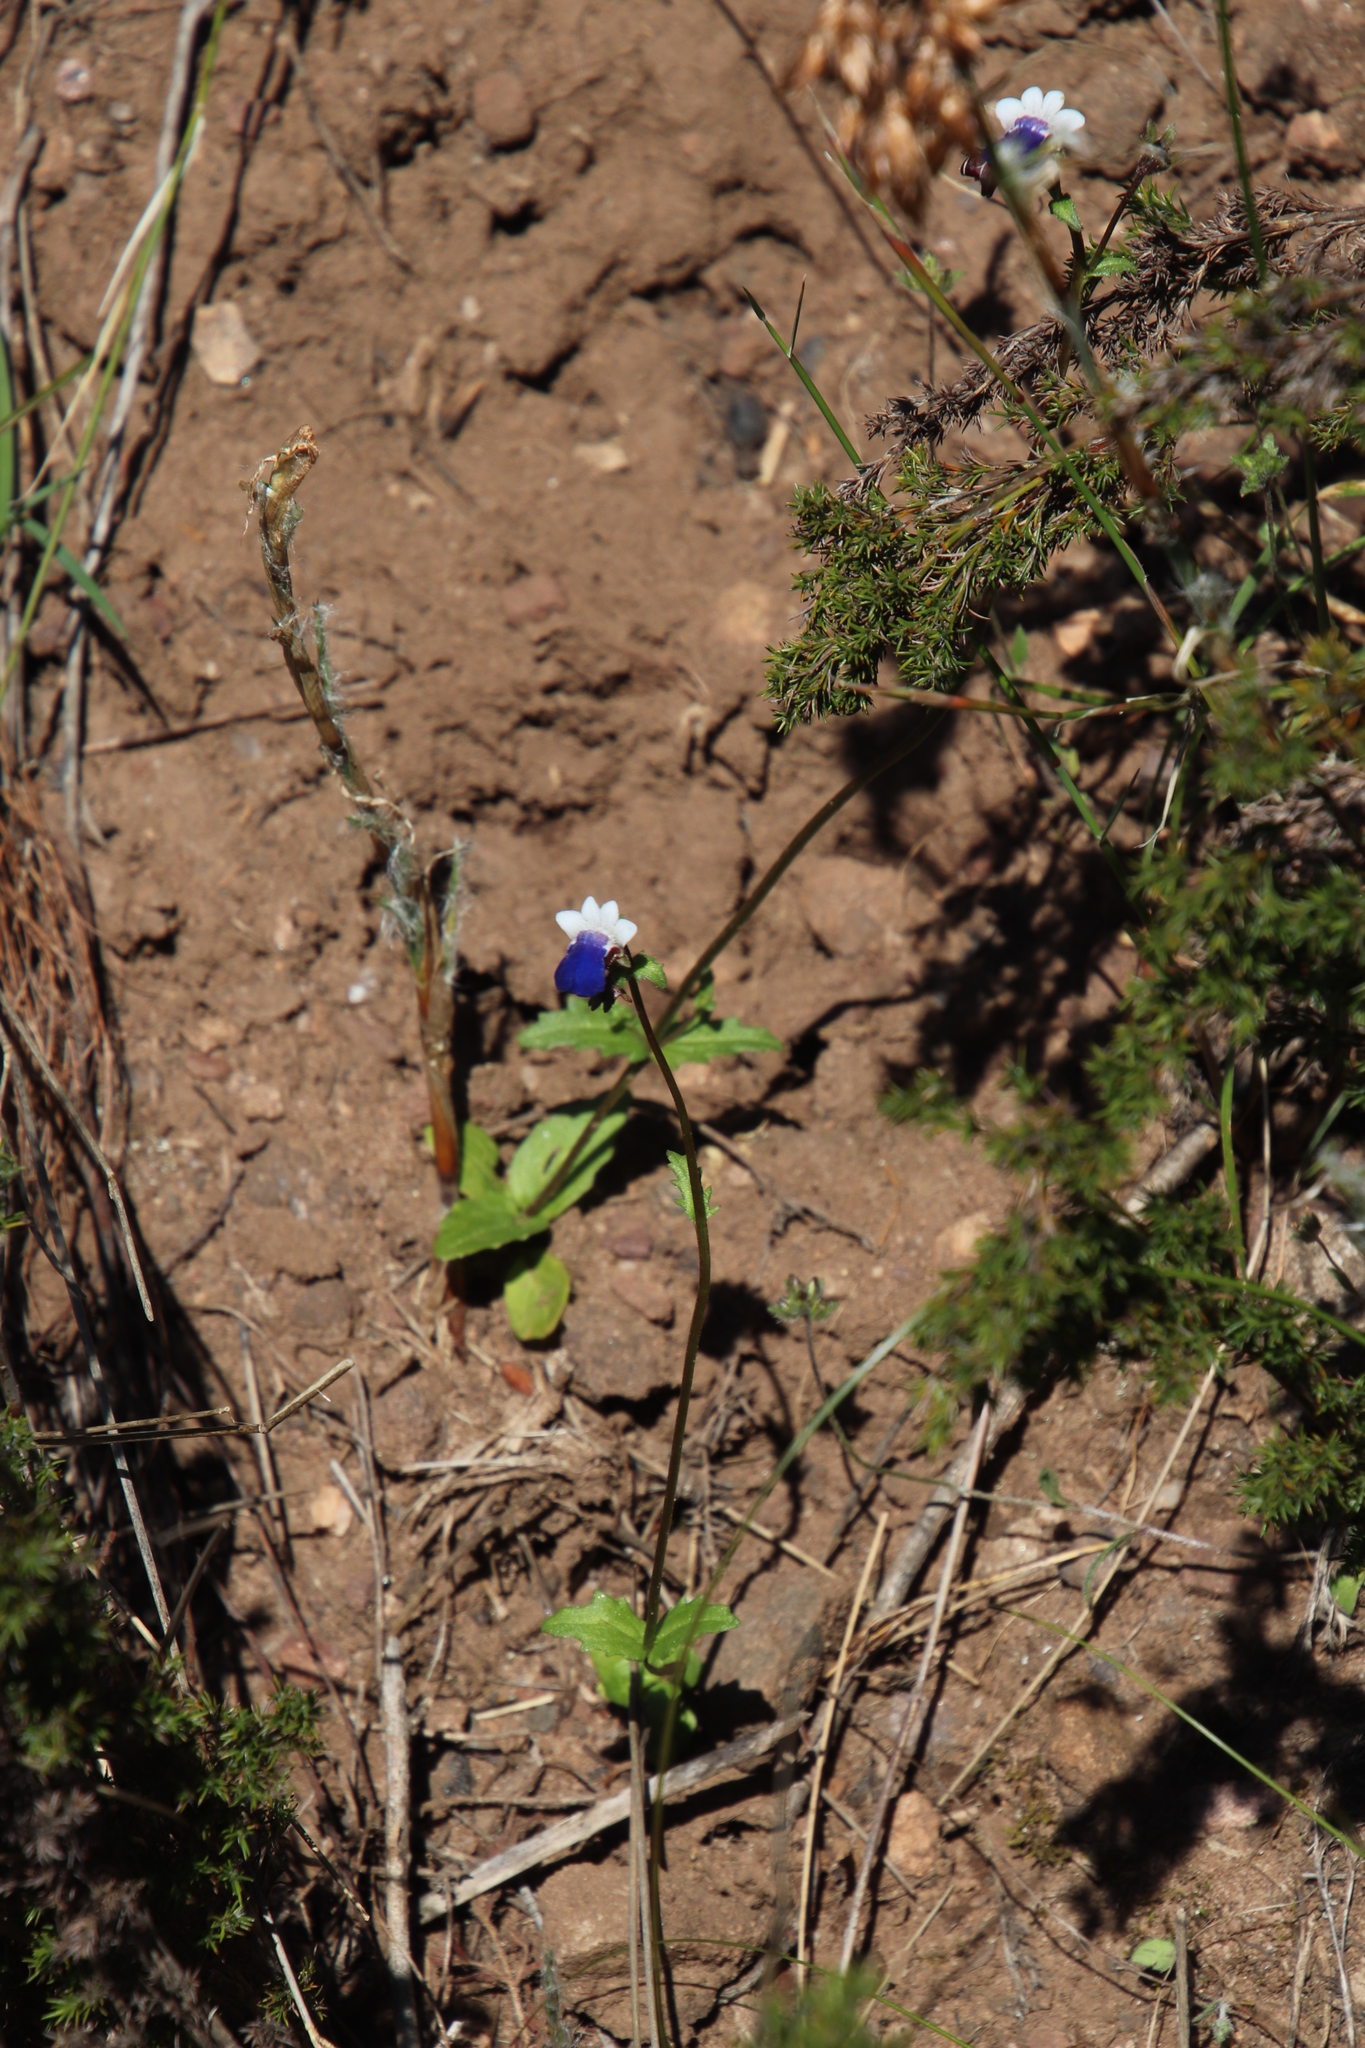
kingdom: Plantae
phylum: Tracheophyta
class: Magnoliopsida
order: Lamiales
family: Scrophulariaceae
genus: Nemesia
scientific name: Nemesia barbata
